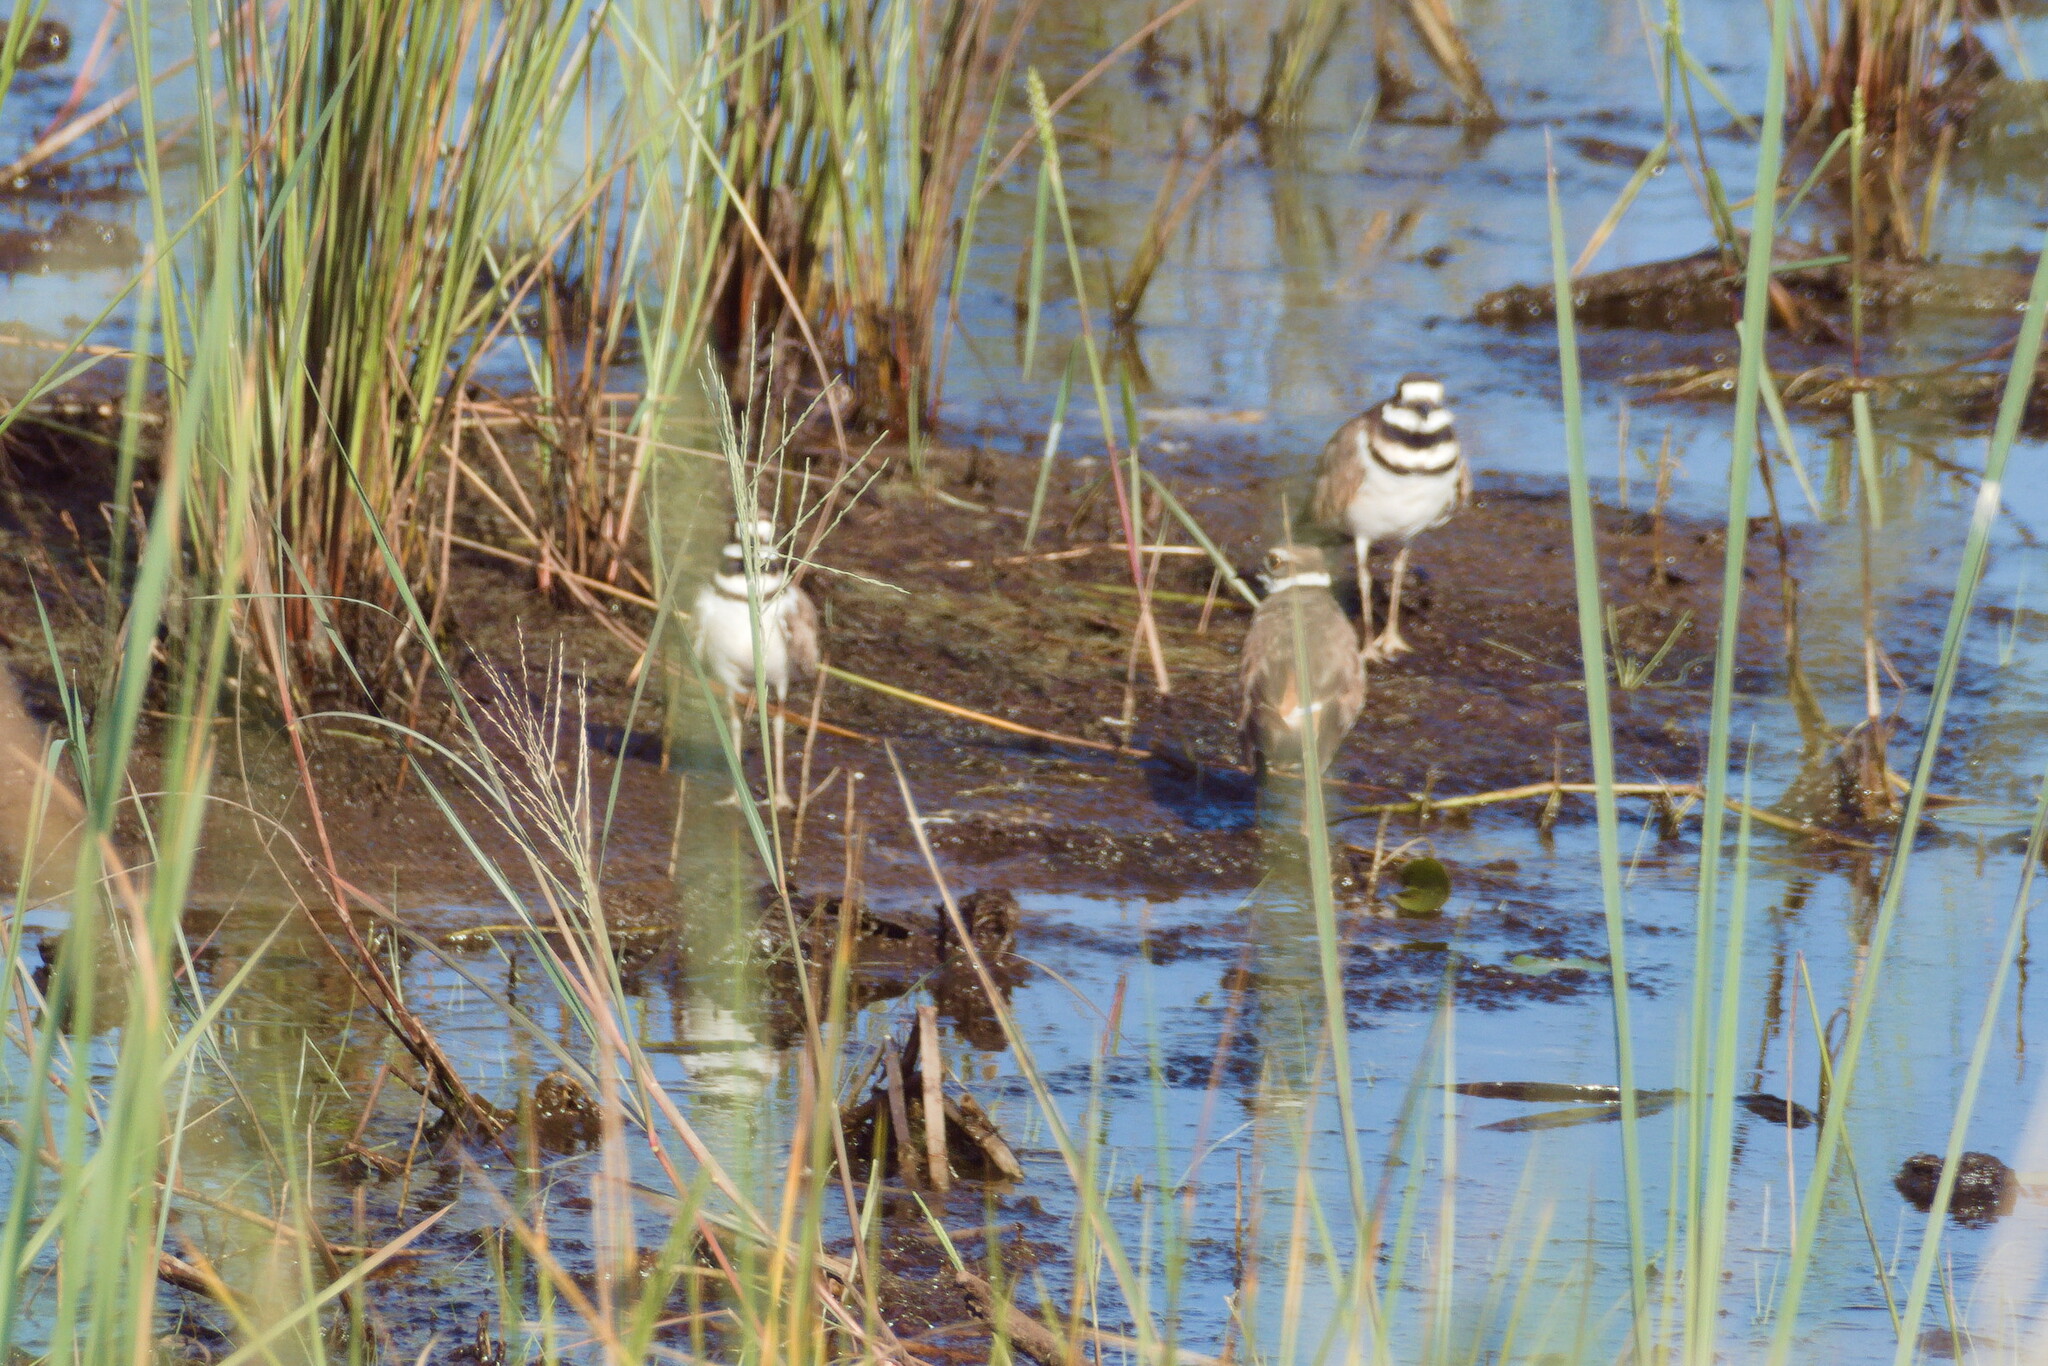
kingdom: Animalia
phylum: Chordata
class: Aves
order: Charadriiformes
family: Charadriidae
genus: Charadrius
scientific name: Charadrius vociferus
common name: Killdeer
